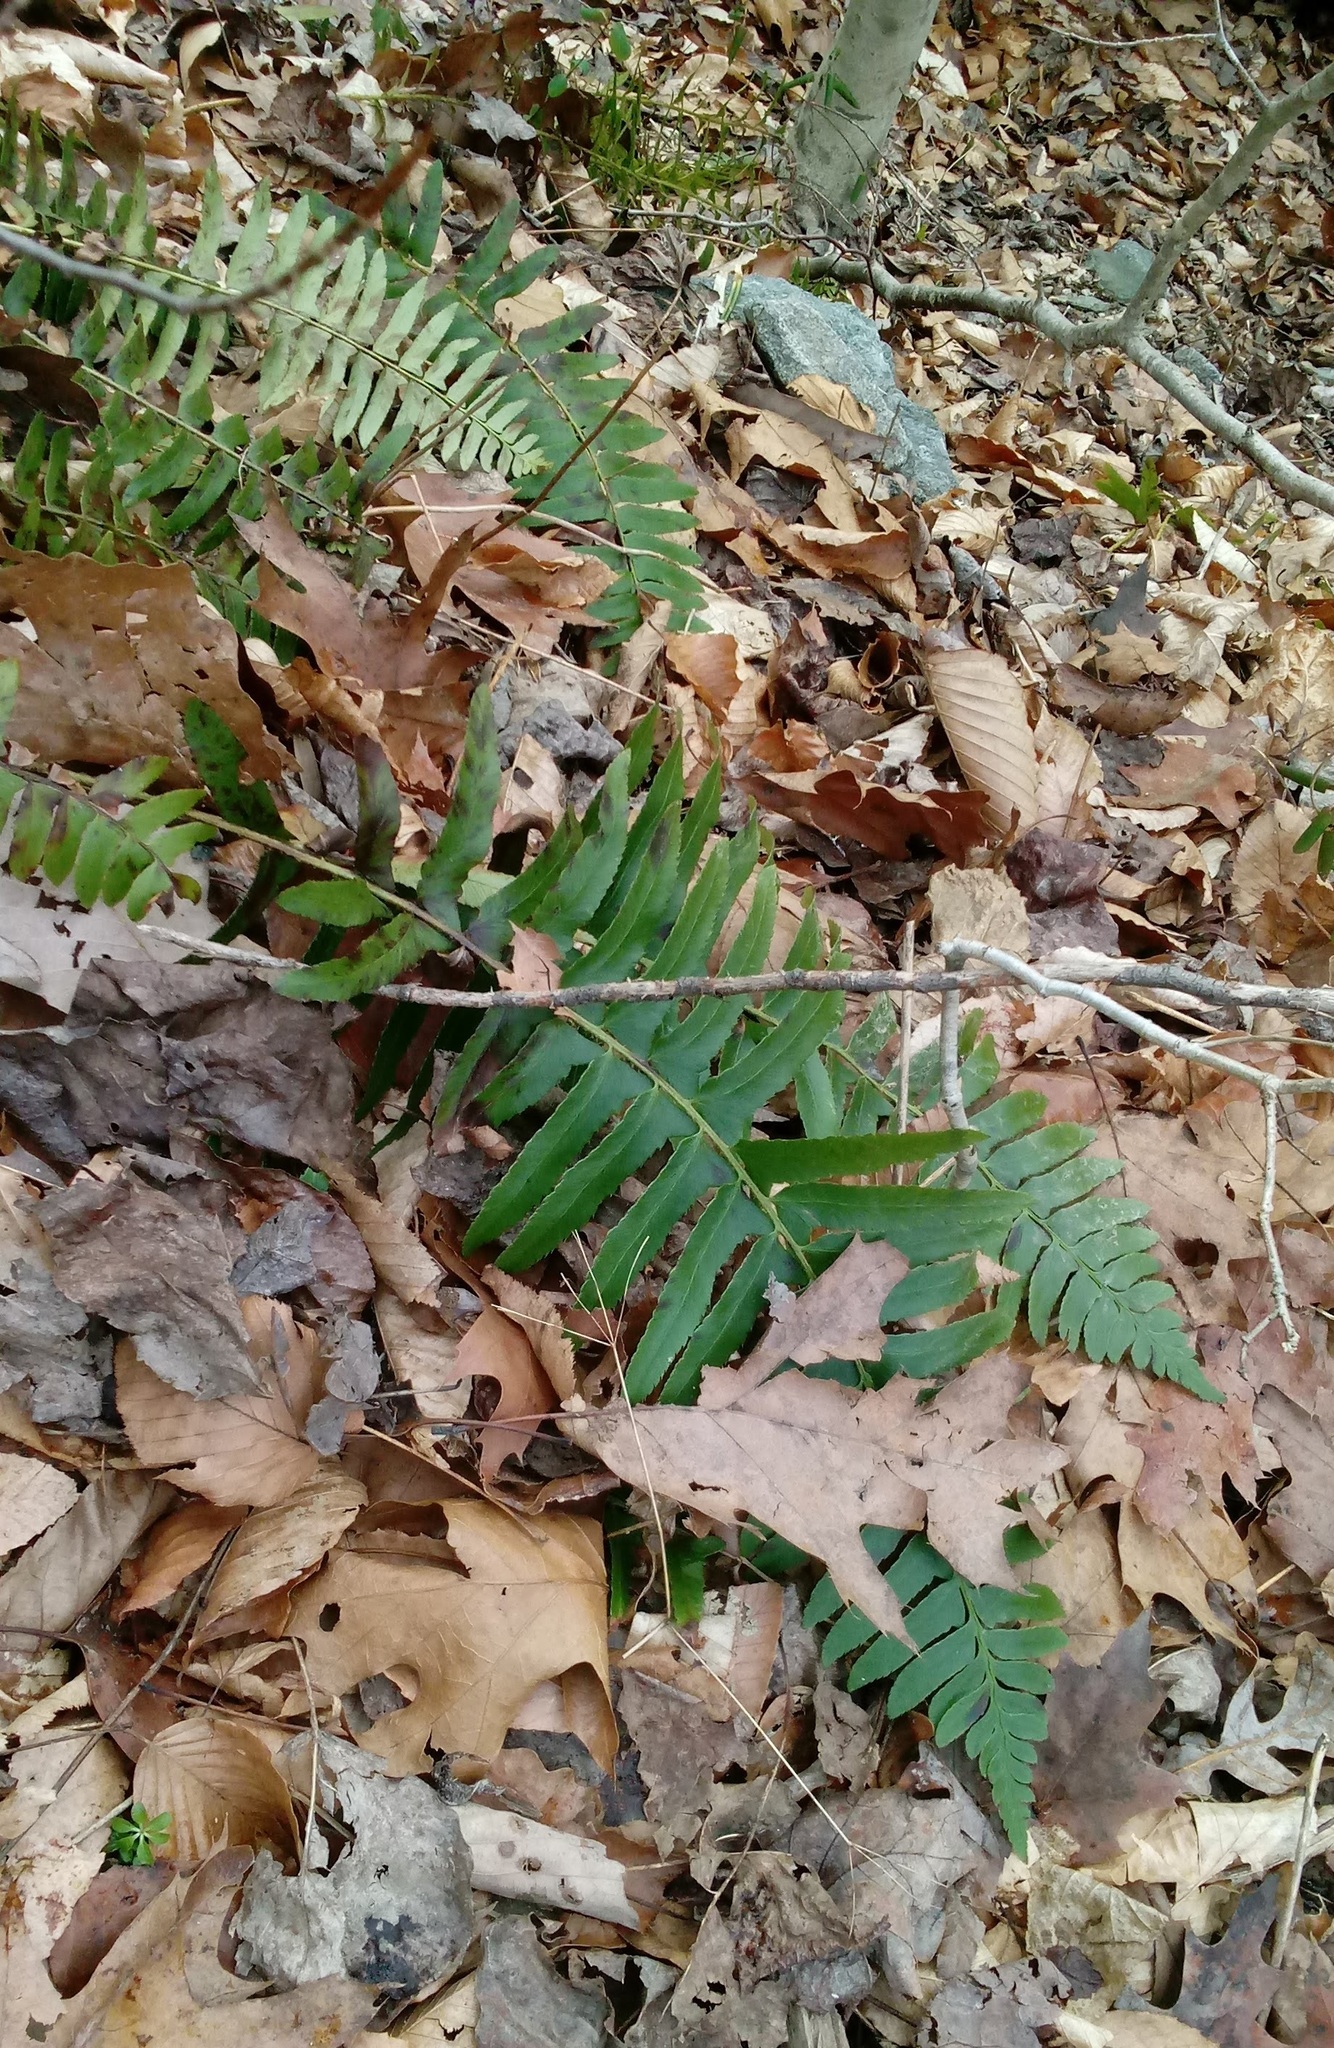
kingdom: Plantae
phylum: Tracheophyta
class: Polypodiopsida
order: Polypodiales
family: Dryopteridaceae
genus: Polystichum
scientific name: Polystichum acrostichoides
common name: Christmas fern
